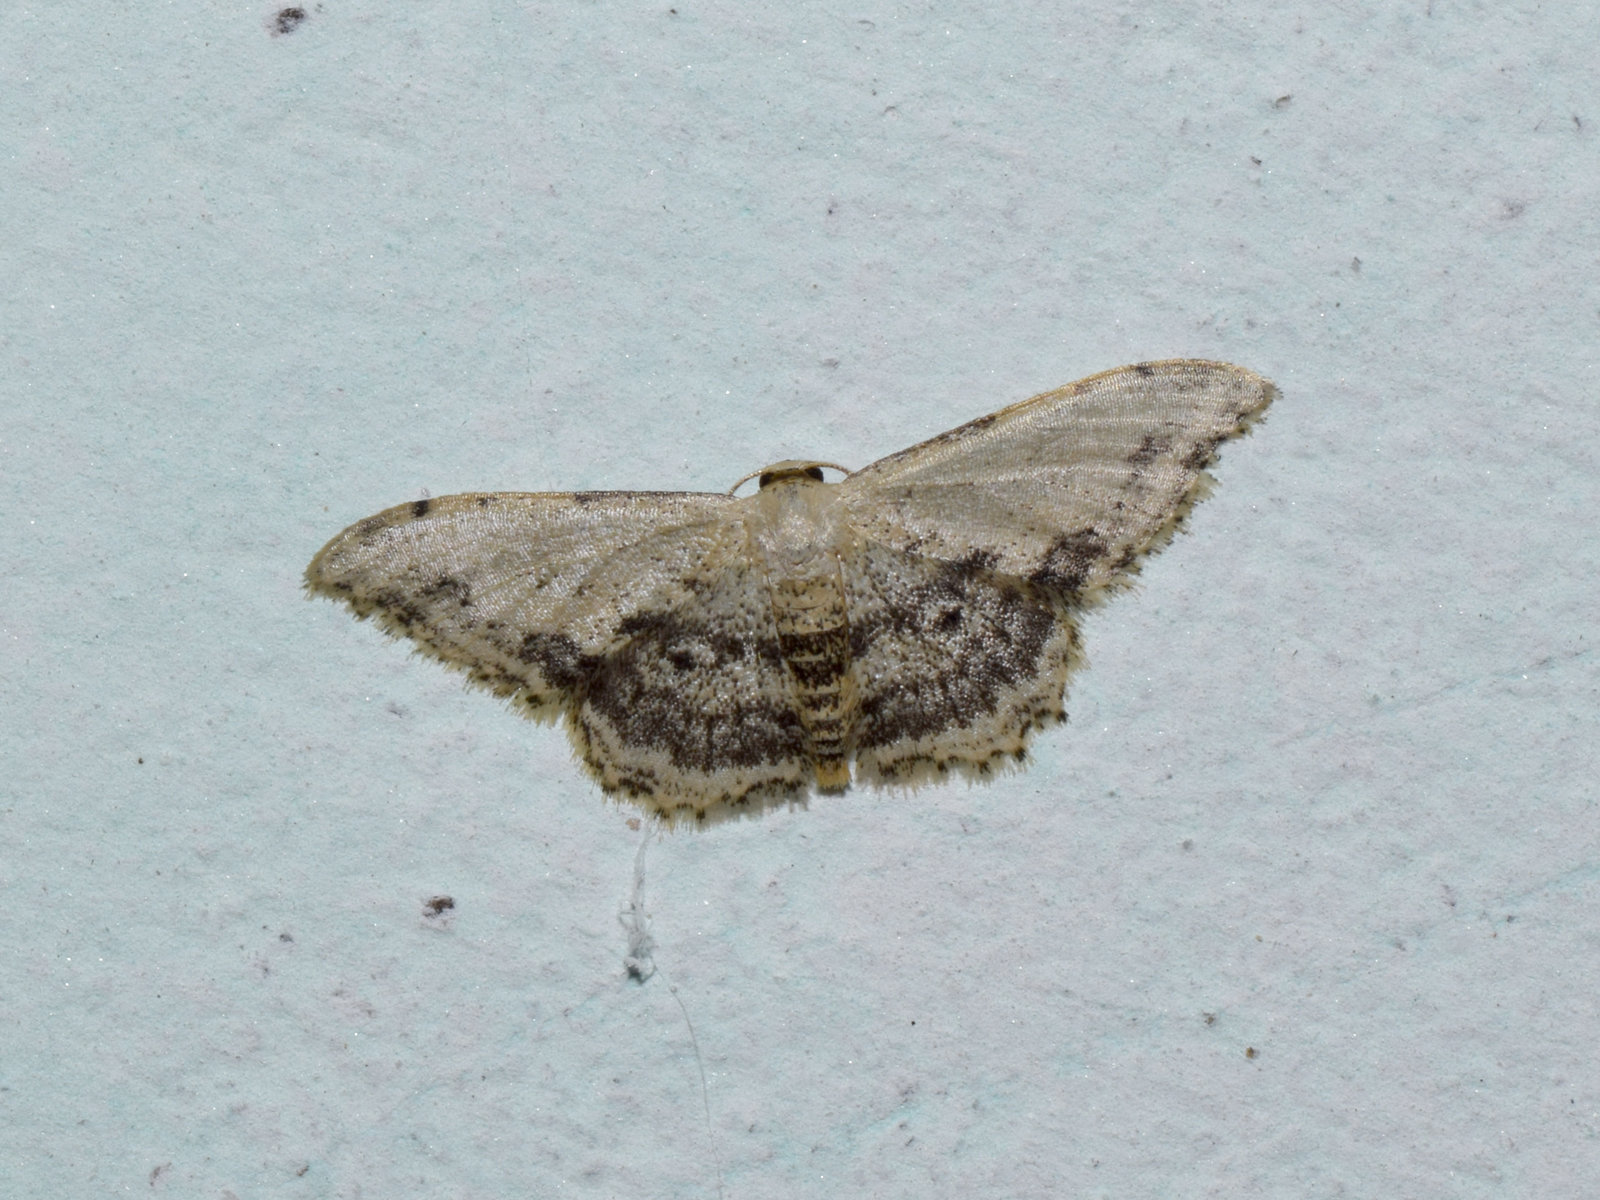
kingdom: Animalia
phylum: Arthropoda
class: Insecta
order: Lepidoptera
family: Geometridae
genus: Idaea
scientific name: Idaea falcipennis
